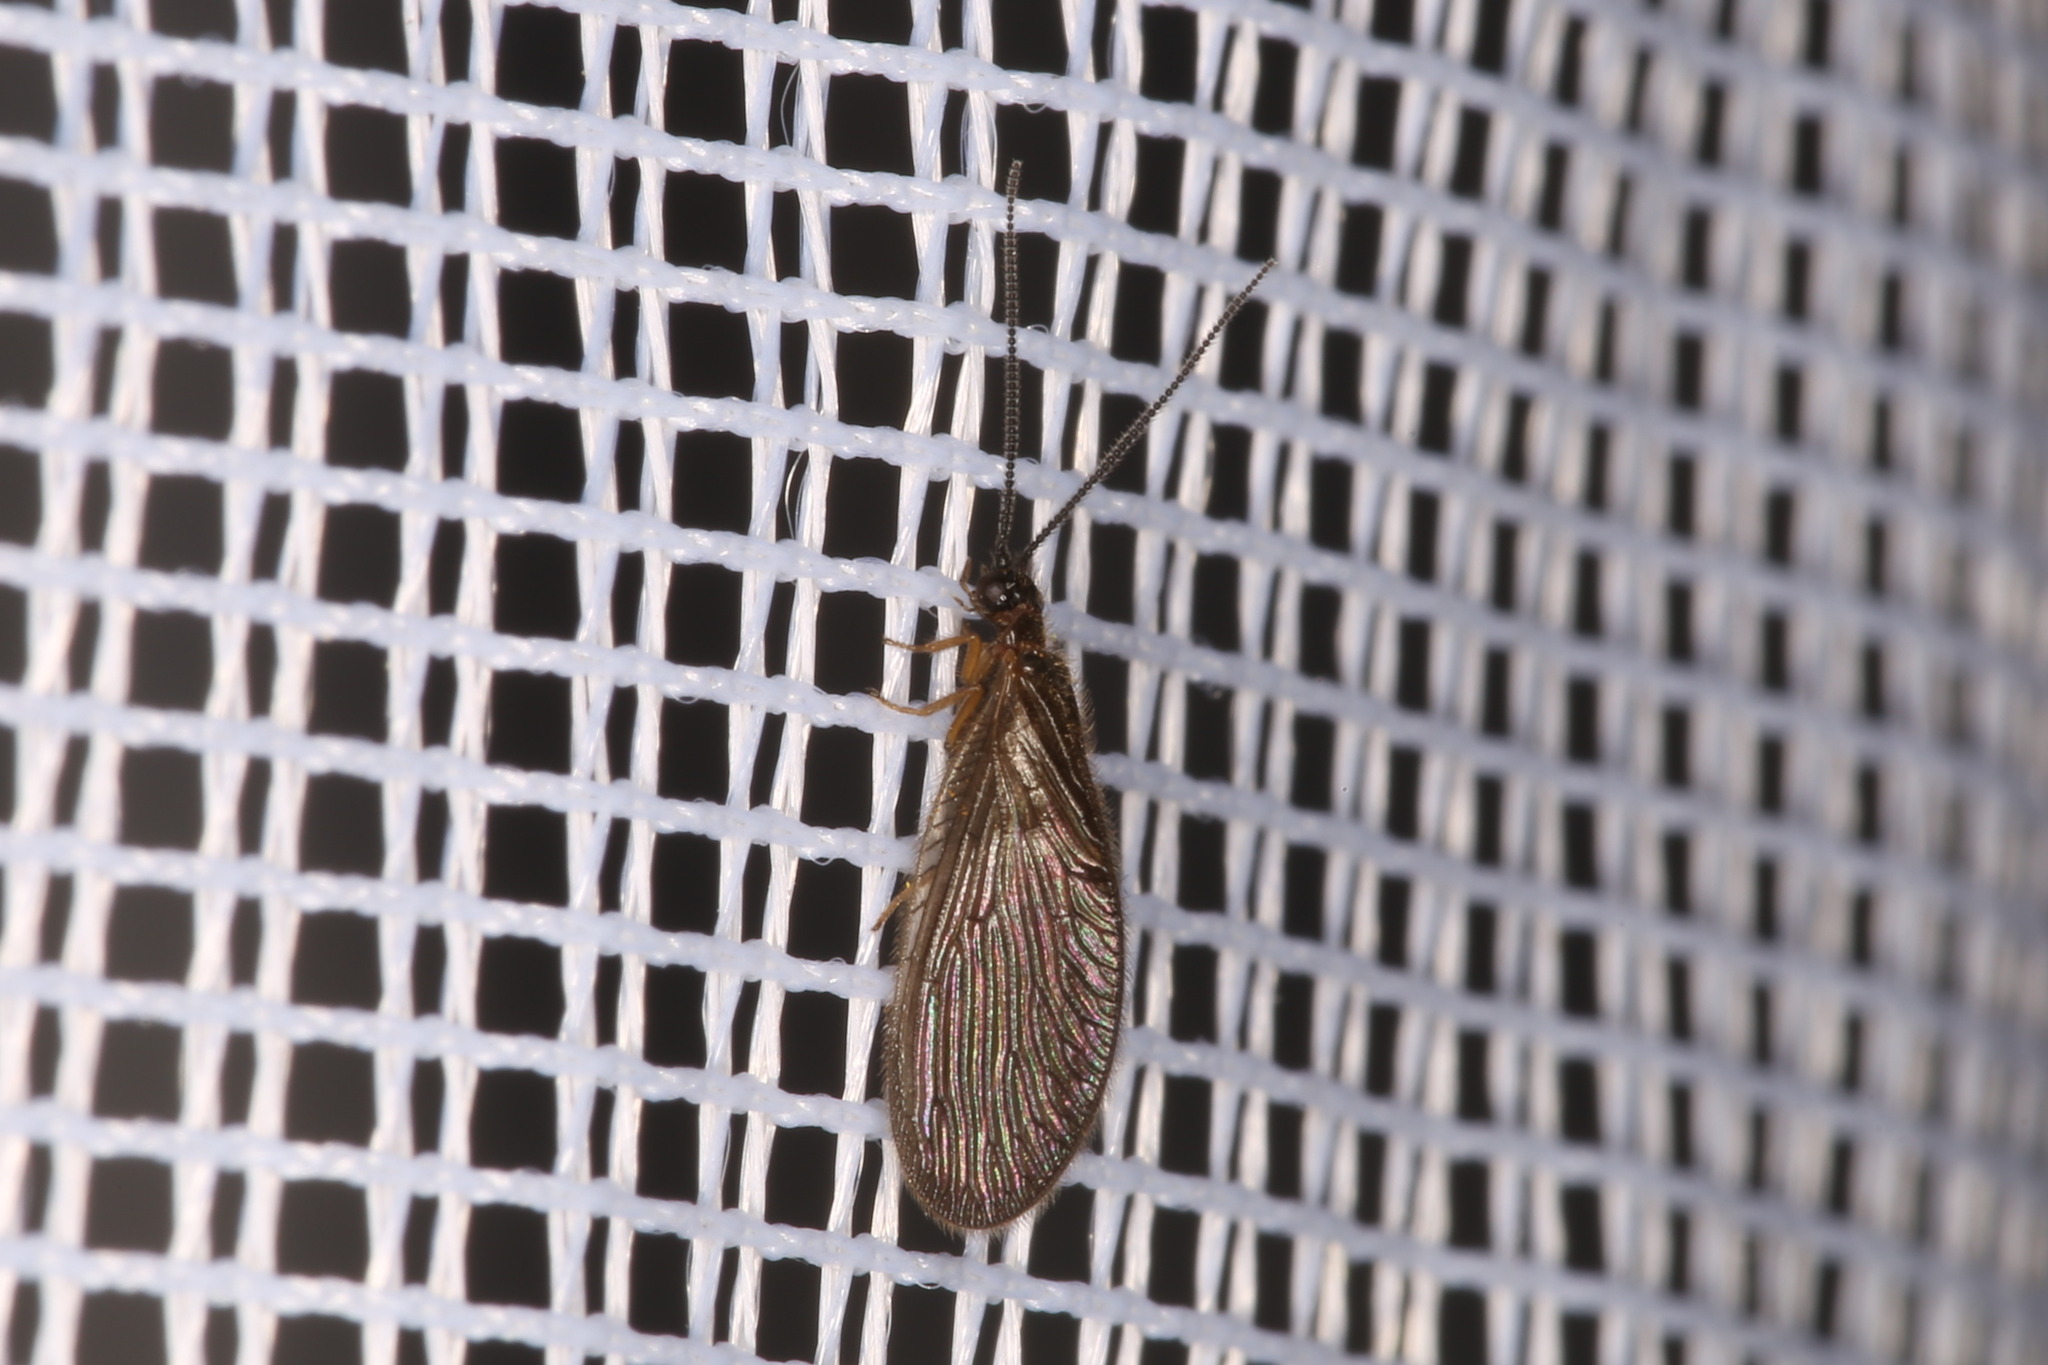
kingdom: Animalia
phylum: Arthropoda
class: Insecta
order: Neuroptera
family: Sisyridae
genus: Sisyra
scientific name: Sisyra nigra
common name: Black spongillafly
